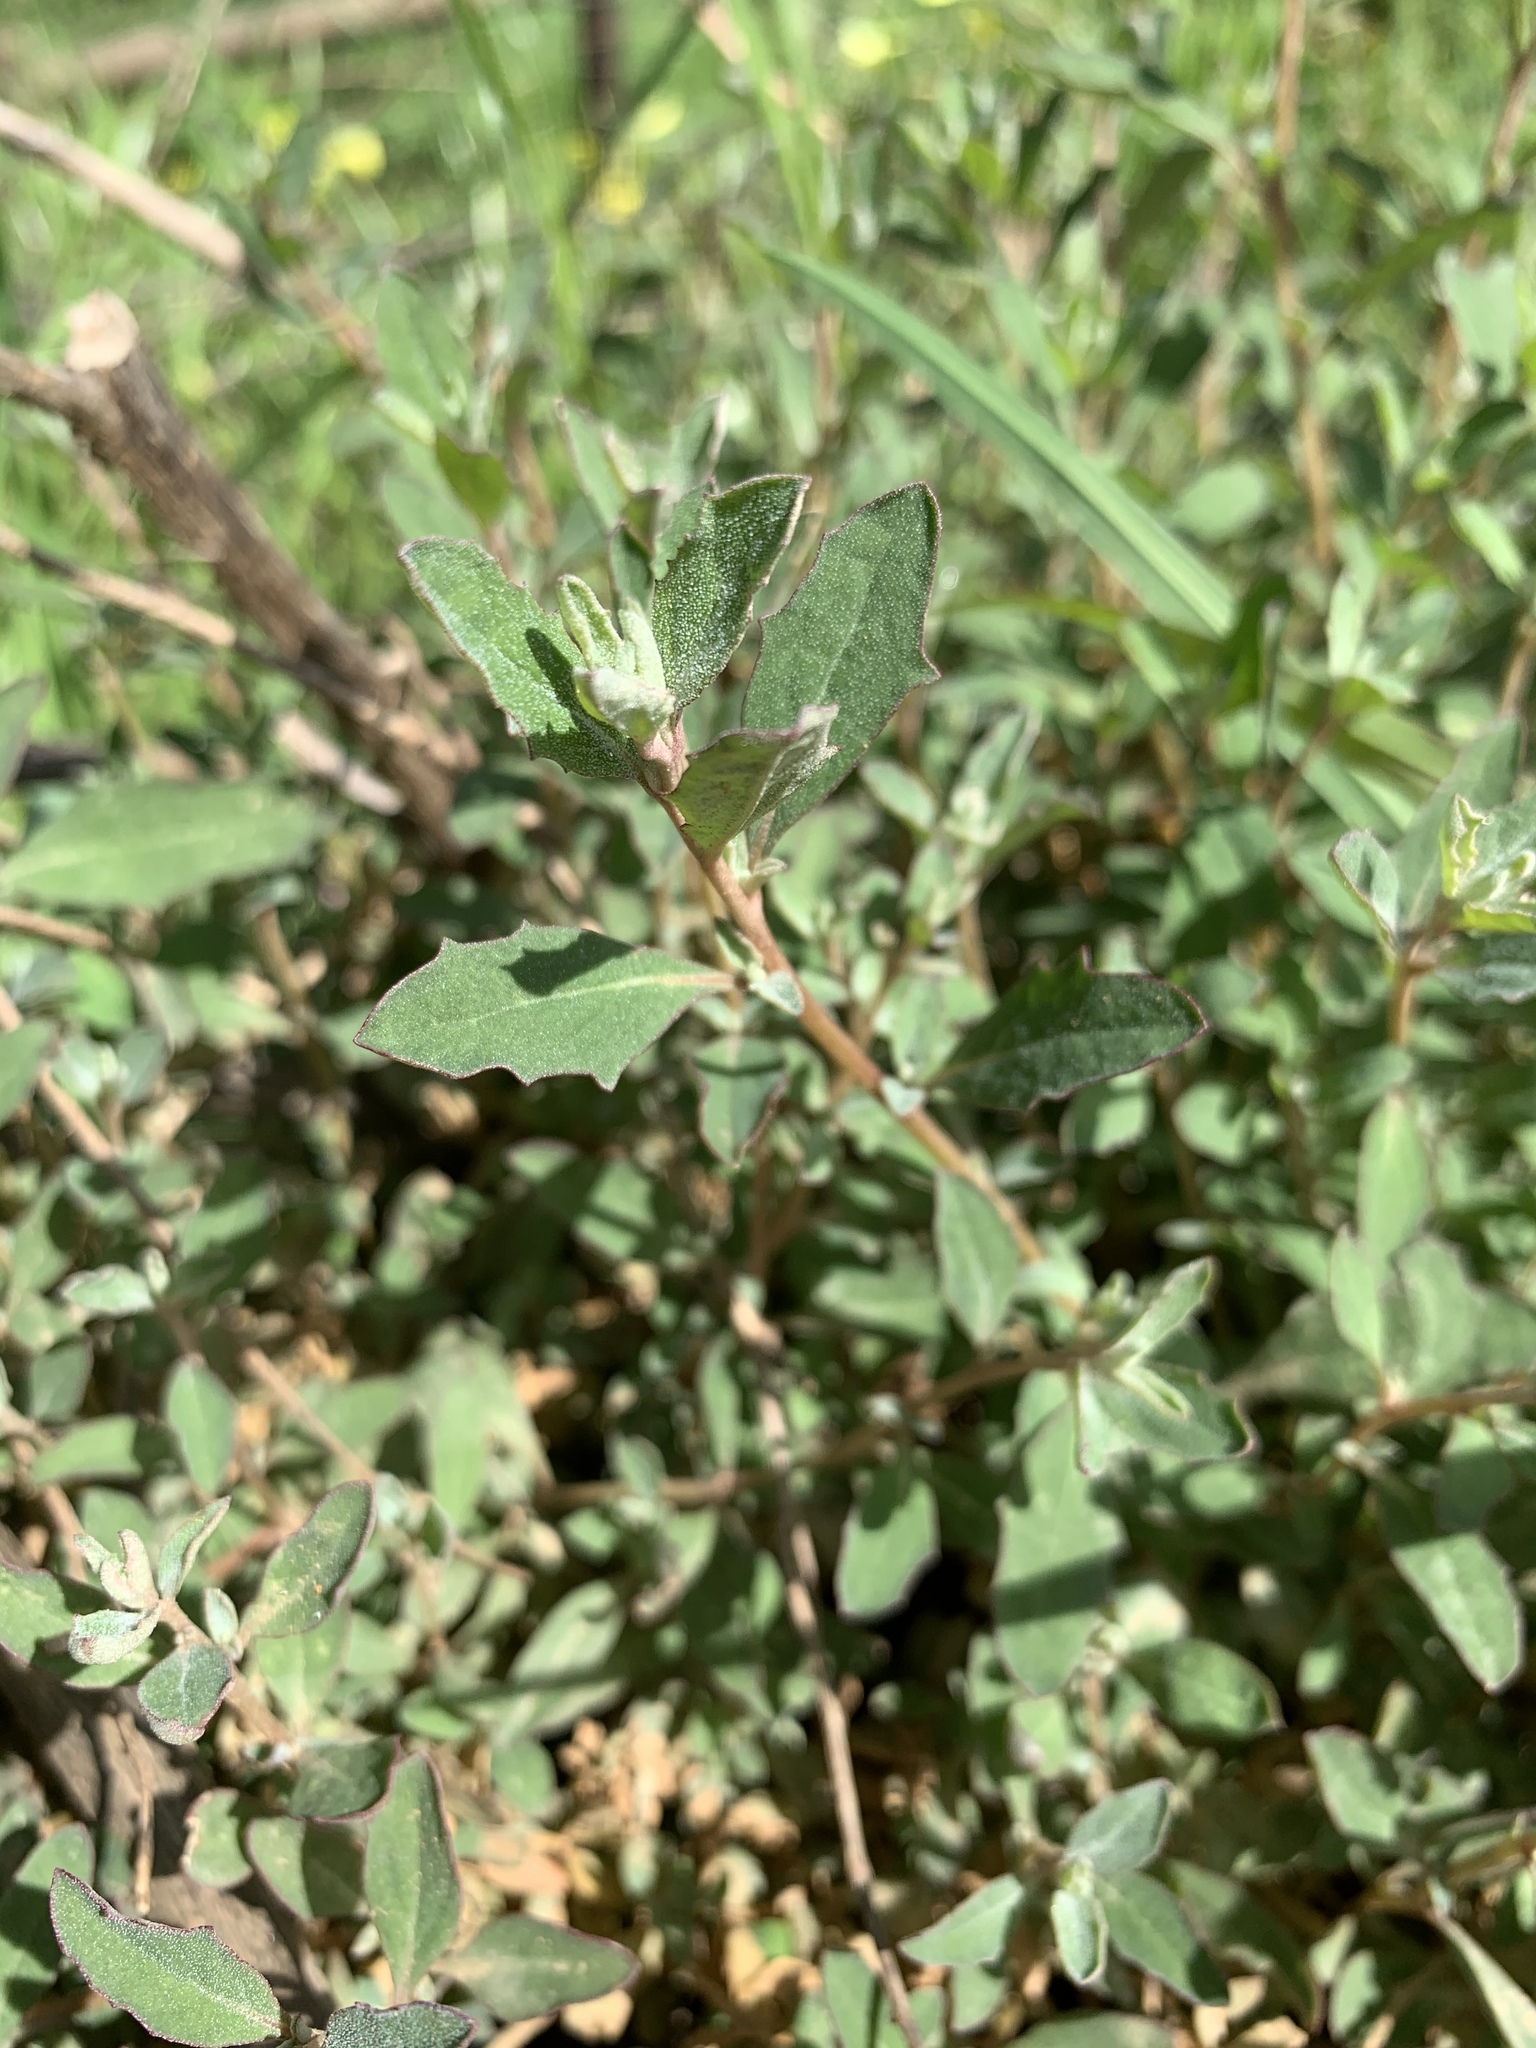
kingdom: Plantae
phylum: Tracheophyta
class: Magnoliopsida
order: Caryophyllales
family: Amaranthaceae
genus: Atriplex
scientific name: Atriplex semibaccata
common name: Australian saltbush
